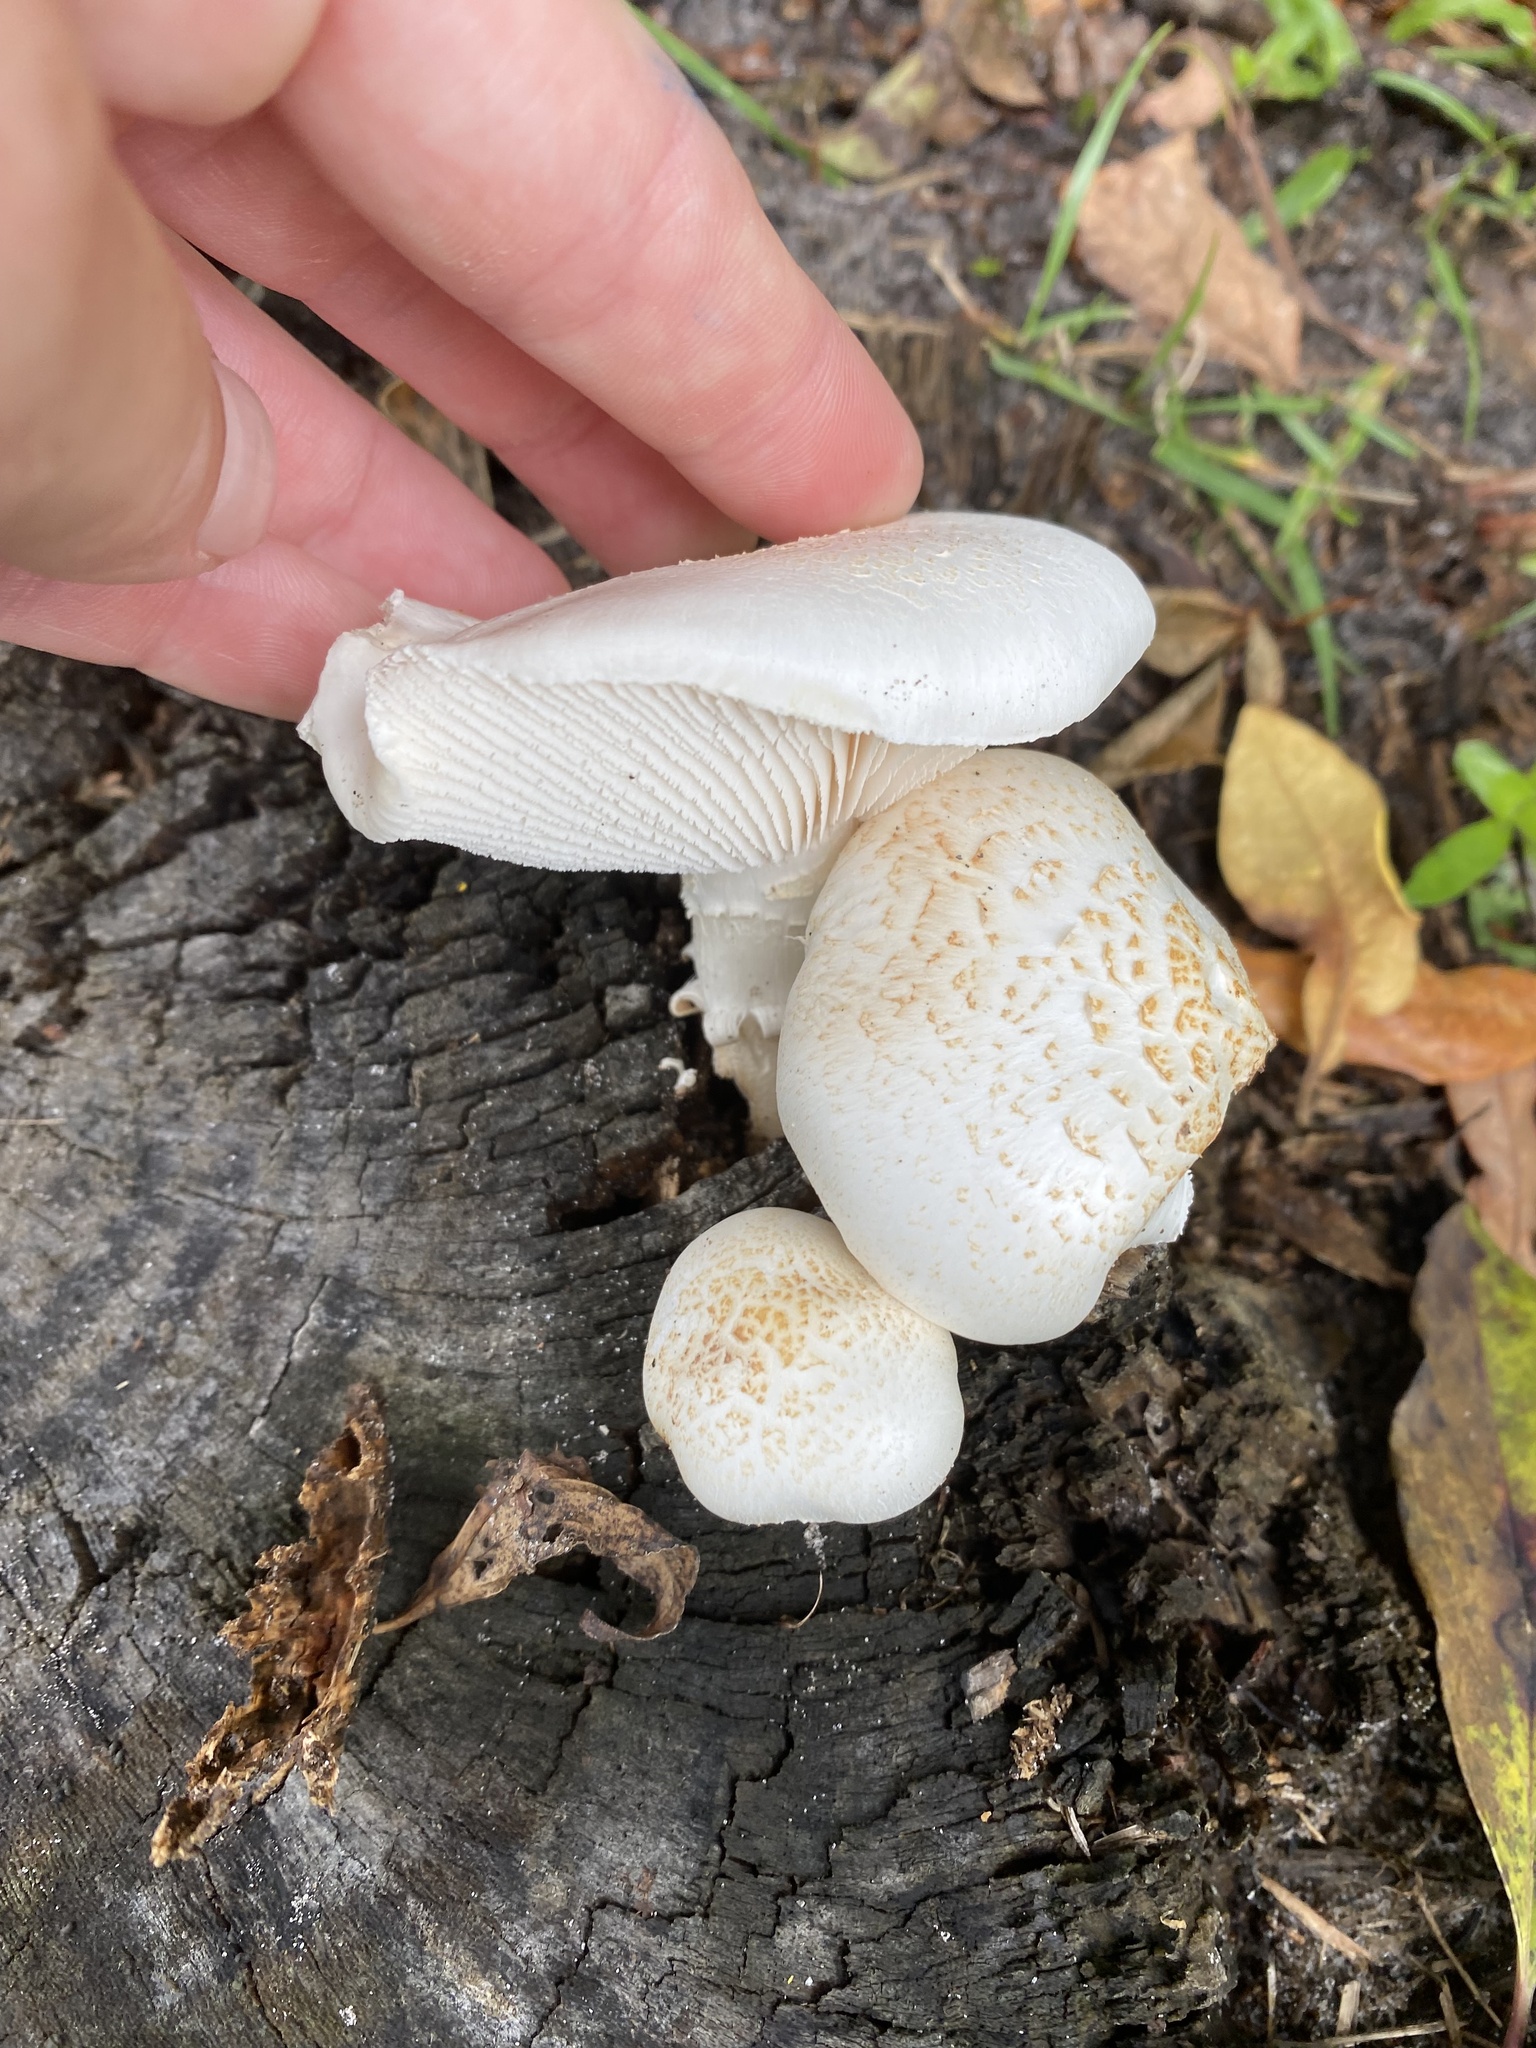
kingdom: Fungi
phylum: Basidiomycota
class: Agaricomycetes
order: Gloeophyllales
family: Gloeophyllaceae
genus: Neolentinus
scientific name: Neolentinus lepideus
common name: Scaly sawgill
